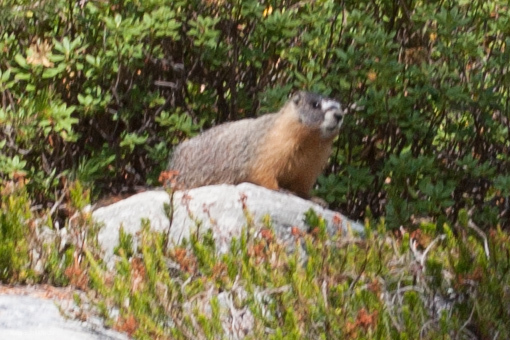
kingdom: Animalia
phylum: Chordata
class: Mammalia
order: Rodentia
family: Sciuridae
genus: Marmota
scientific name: Marmota flaviventris
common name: Yellow-bellied marmot
